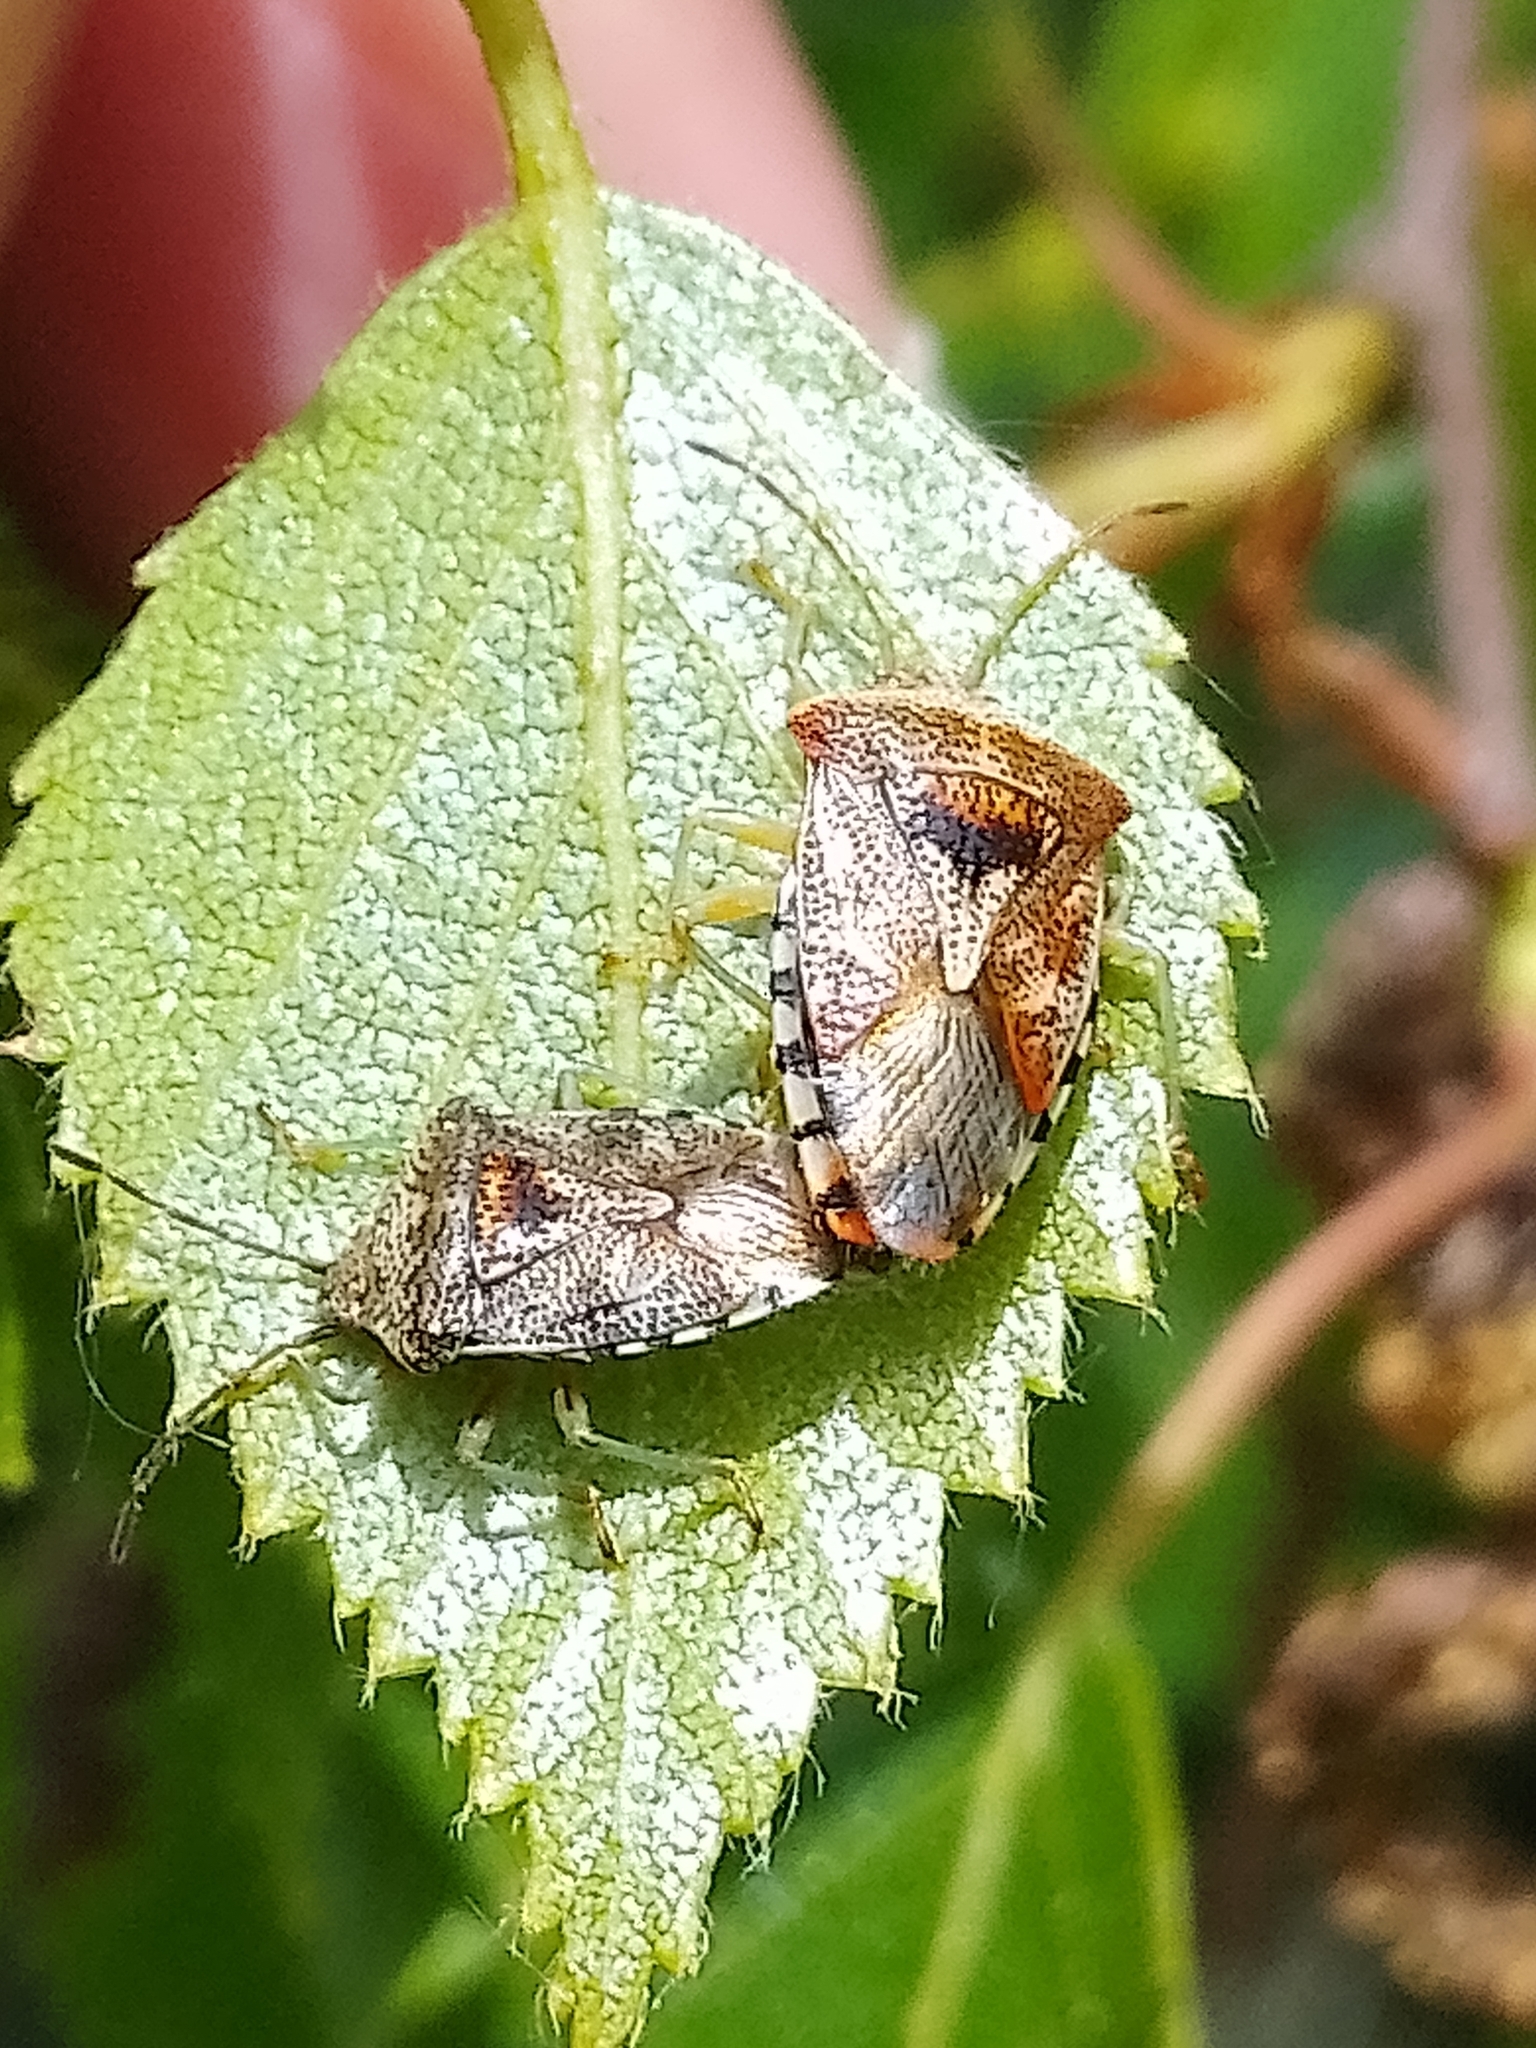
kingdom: Animalia
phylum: Arthropoda
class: Insecta
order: Hemiptera
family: Acanthosomatidae
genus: Elasmucha
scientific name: Elasmucha grisea
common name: Parent bug
